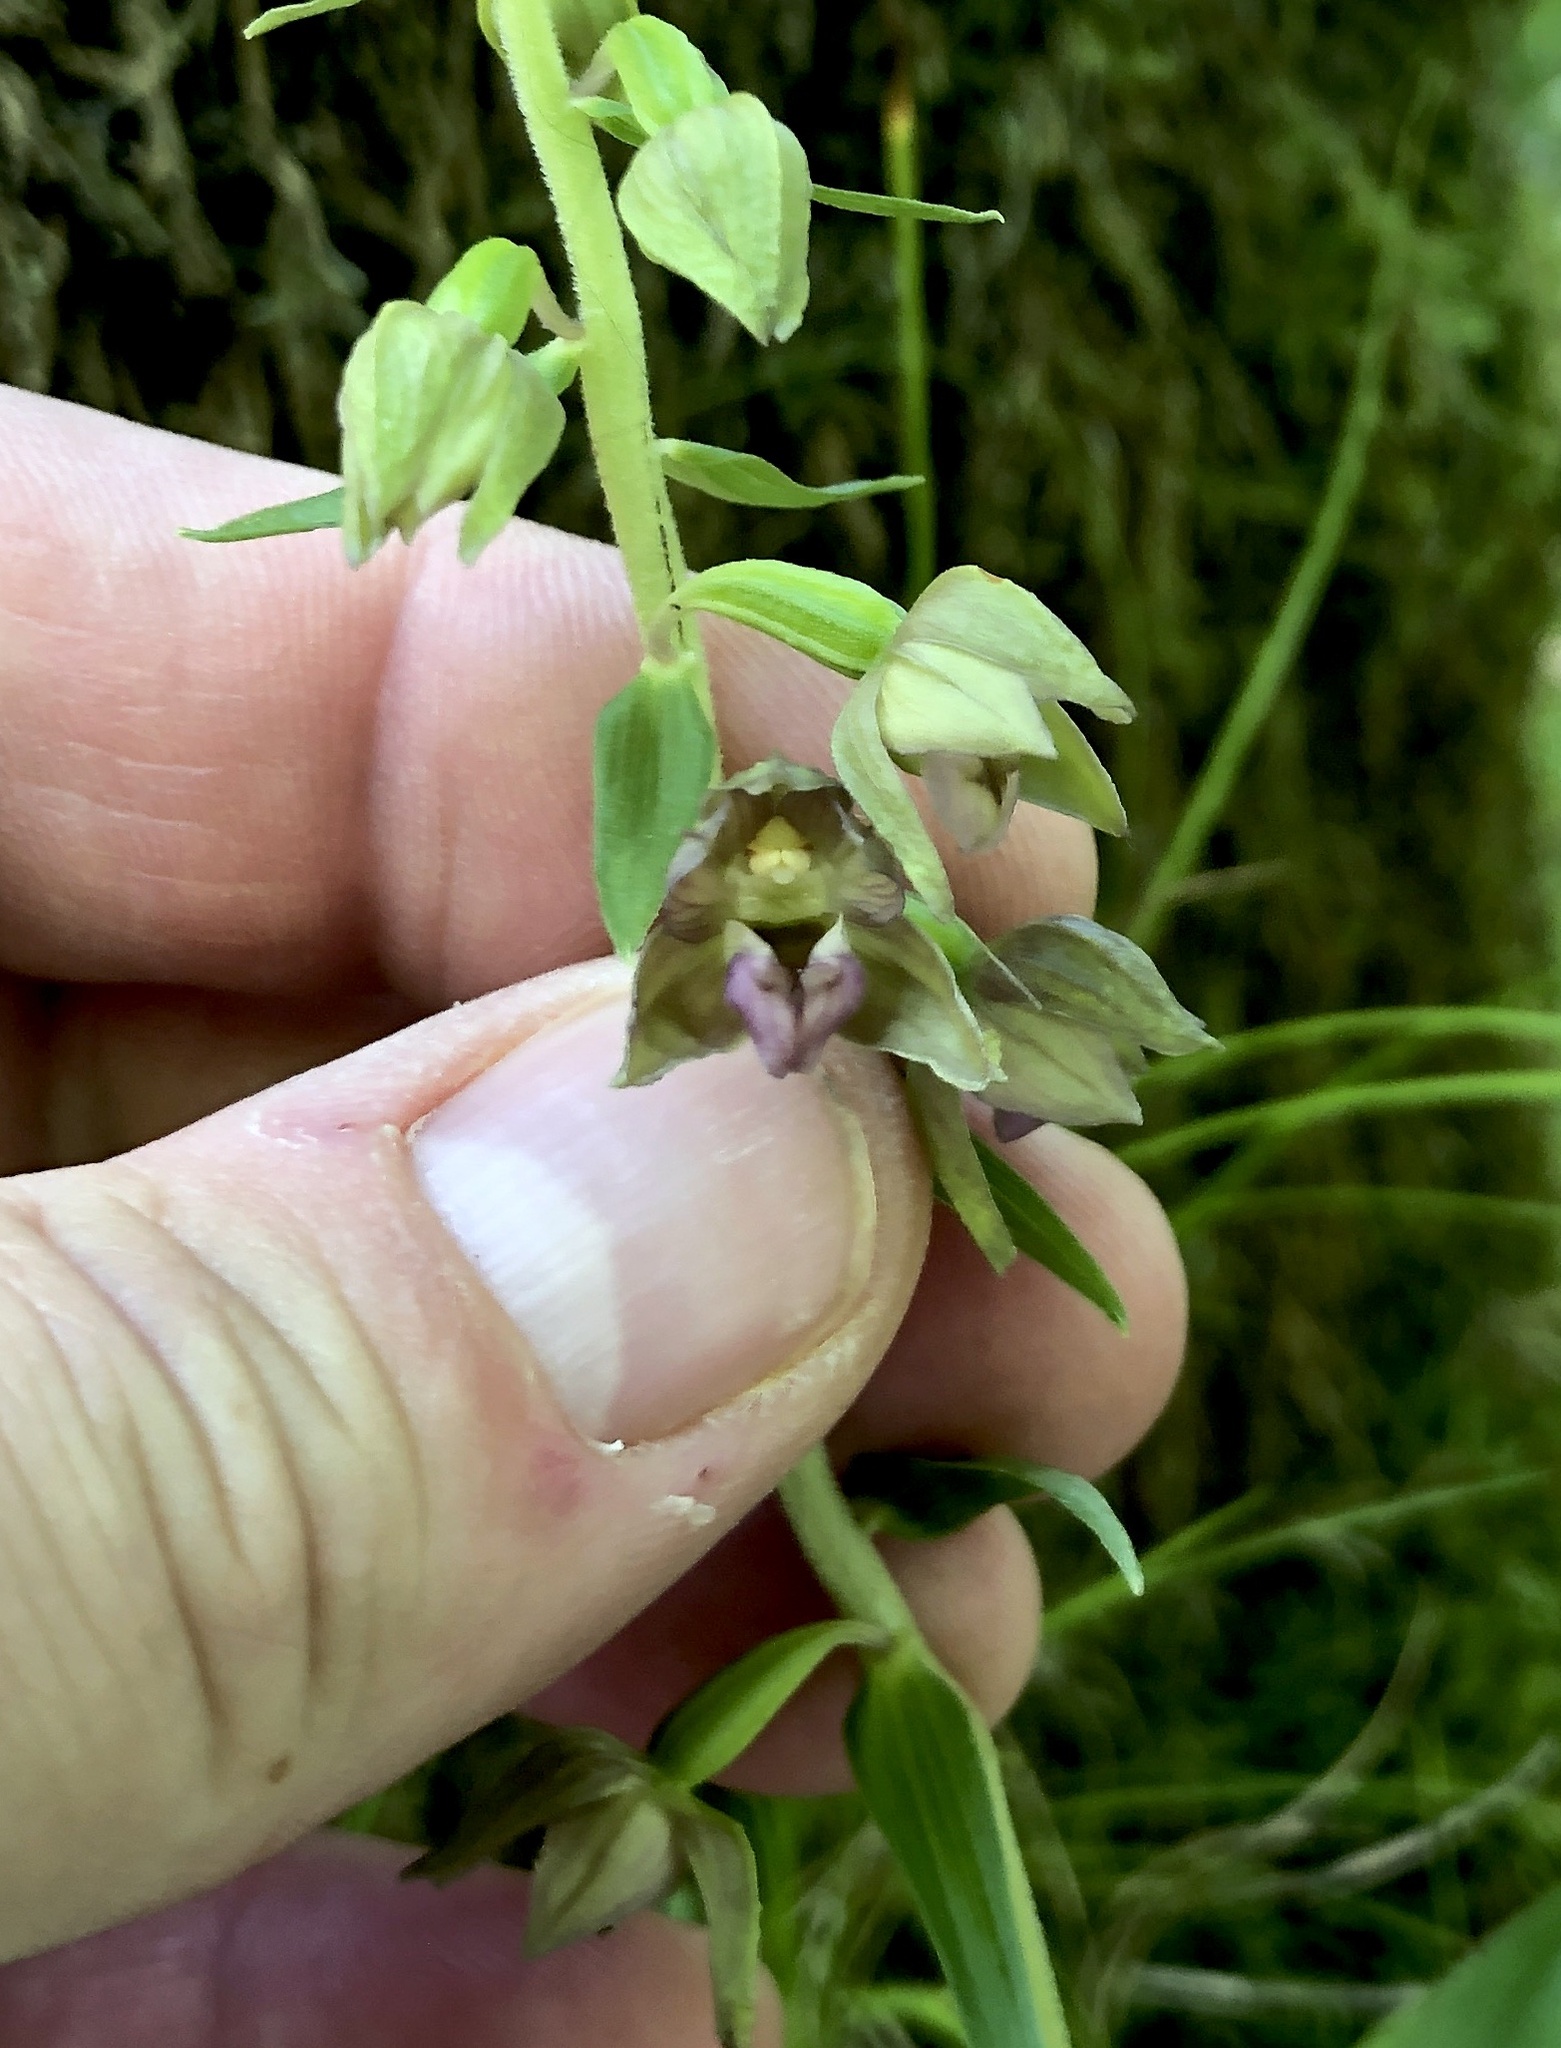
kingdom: Plantae
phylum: Tracheophyta
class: Liliopsida
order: Asparagales
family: Orchidaceae
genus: Epipactis
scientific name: Epipactis helleborine
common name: Broad-leaved helleborine
